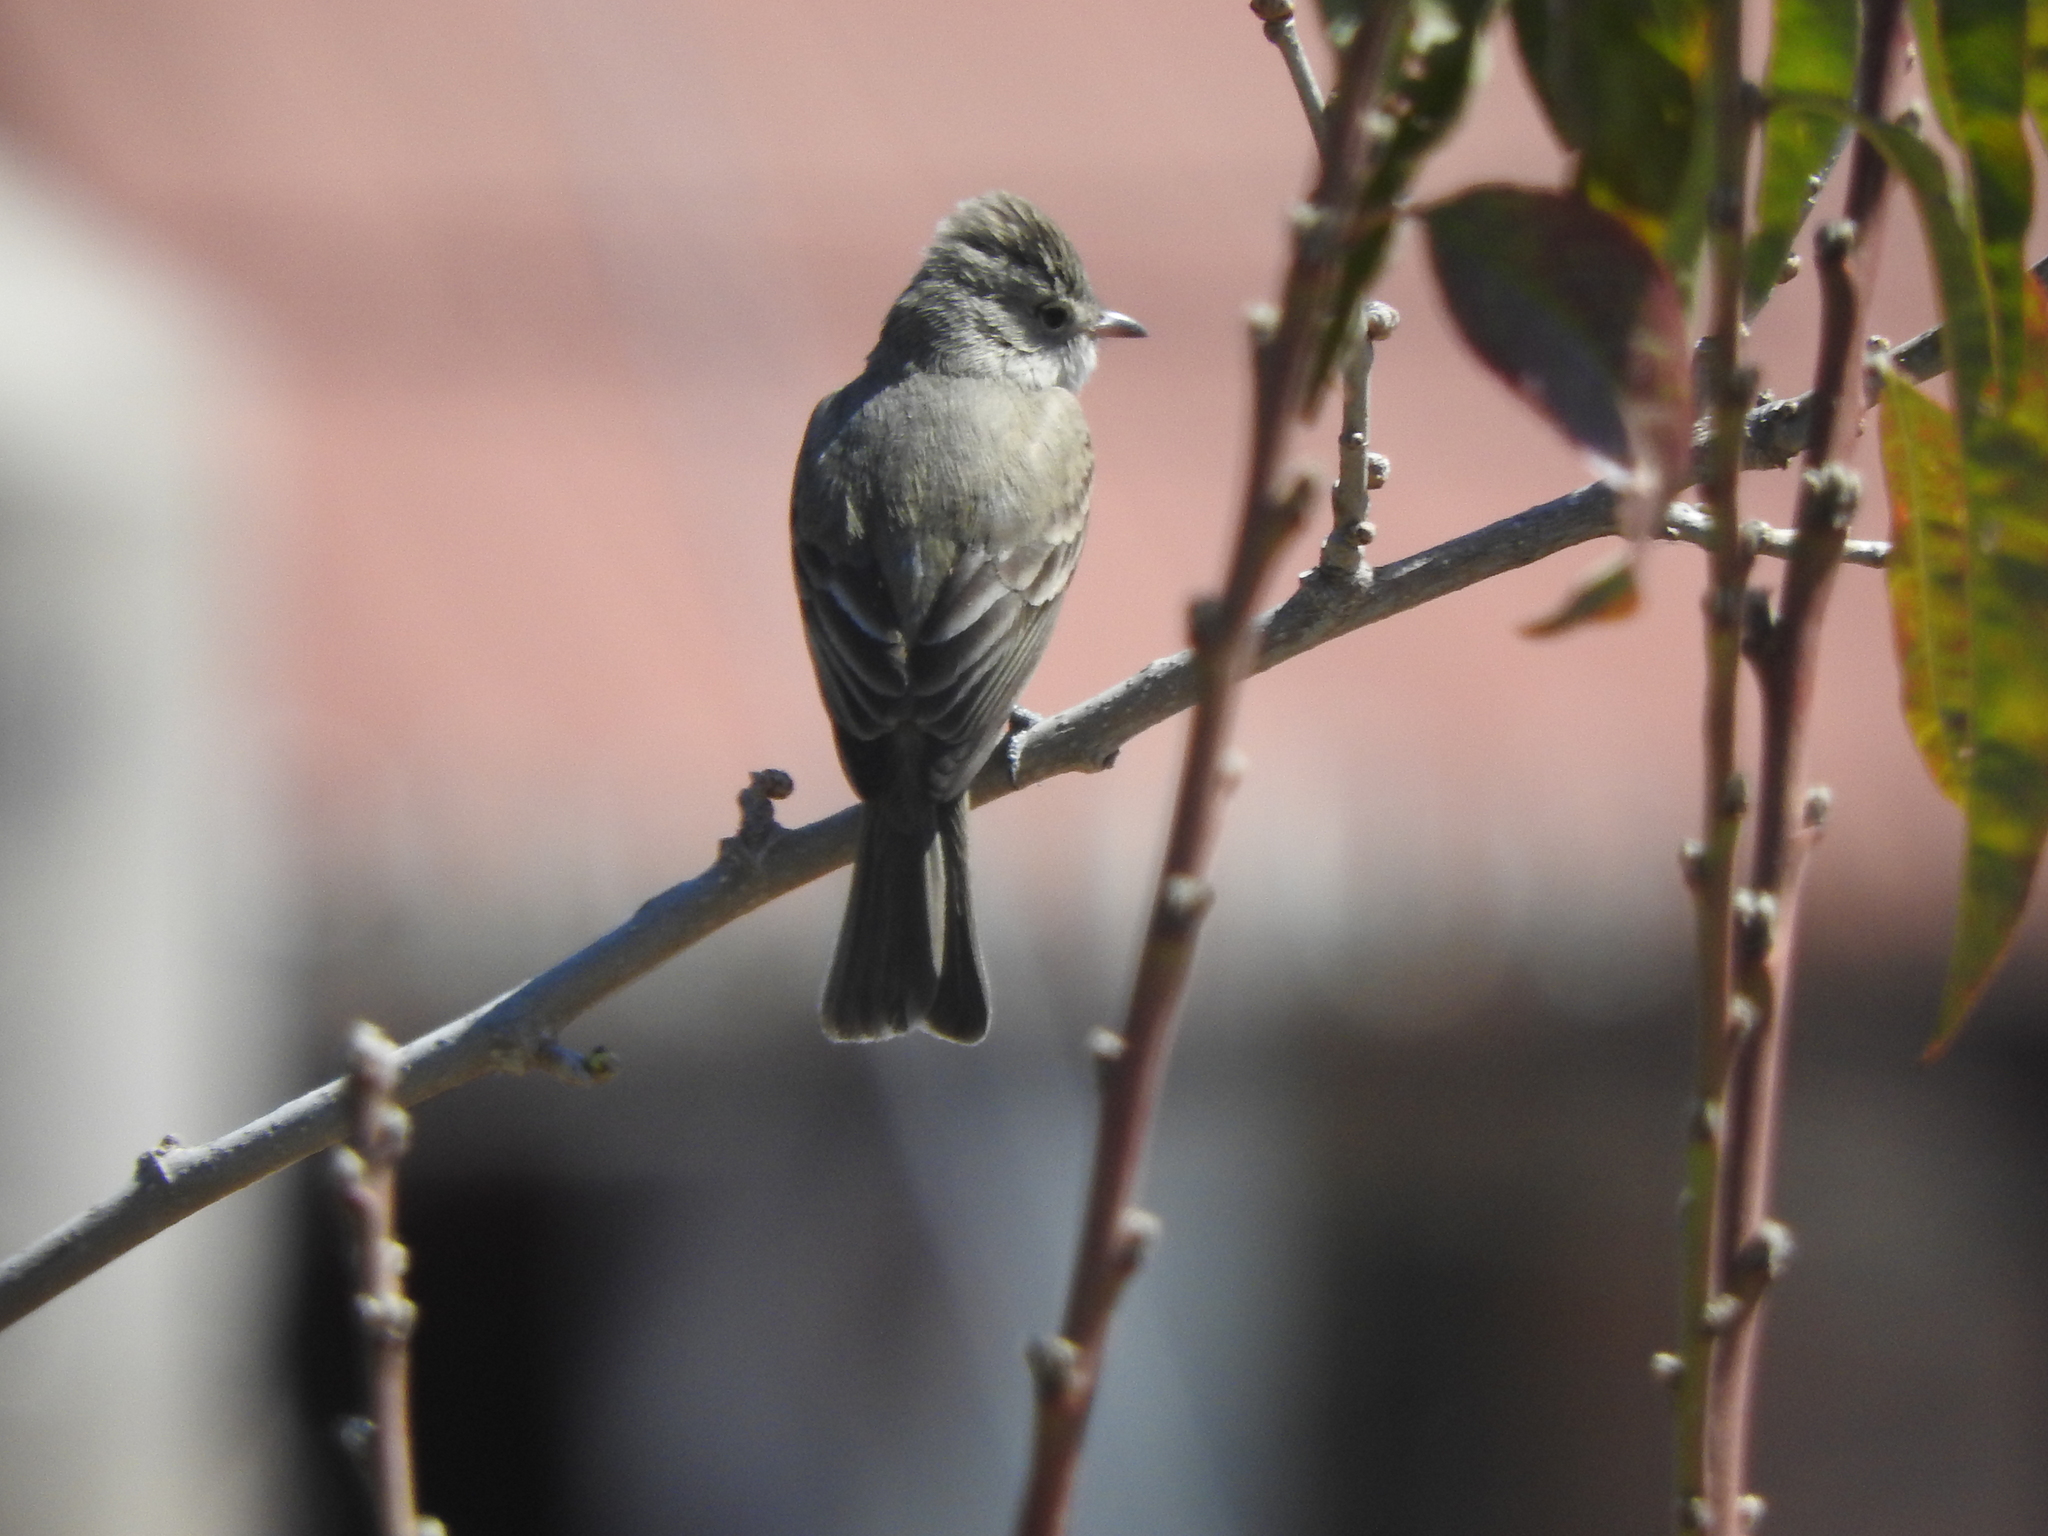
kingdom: Animalia
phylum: Chordata
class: Aves
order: Passeriformes
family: Tyrannidae
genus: Camptostoma
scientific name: Camptostoma imberbe
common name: Northern beardless-tyrannulet
